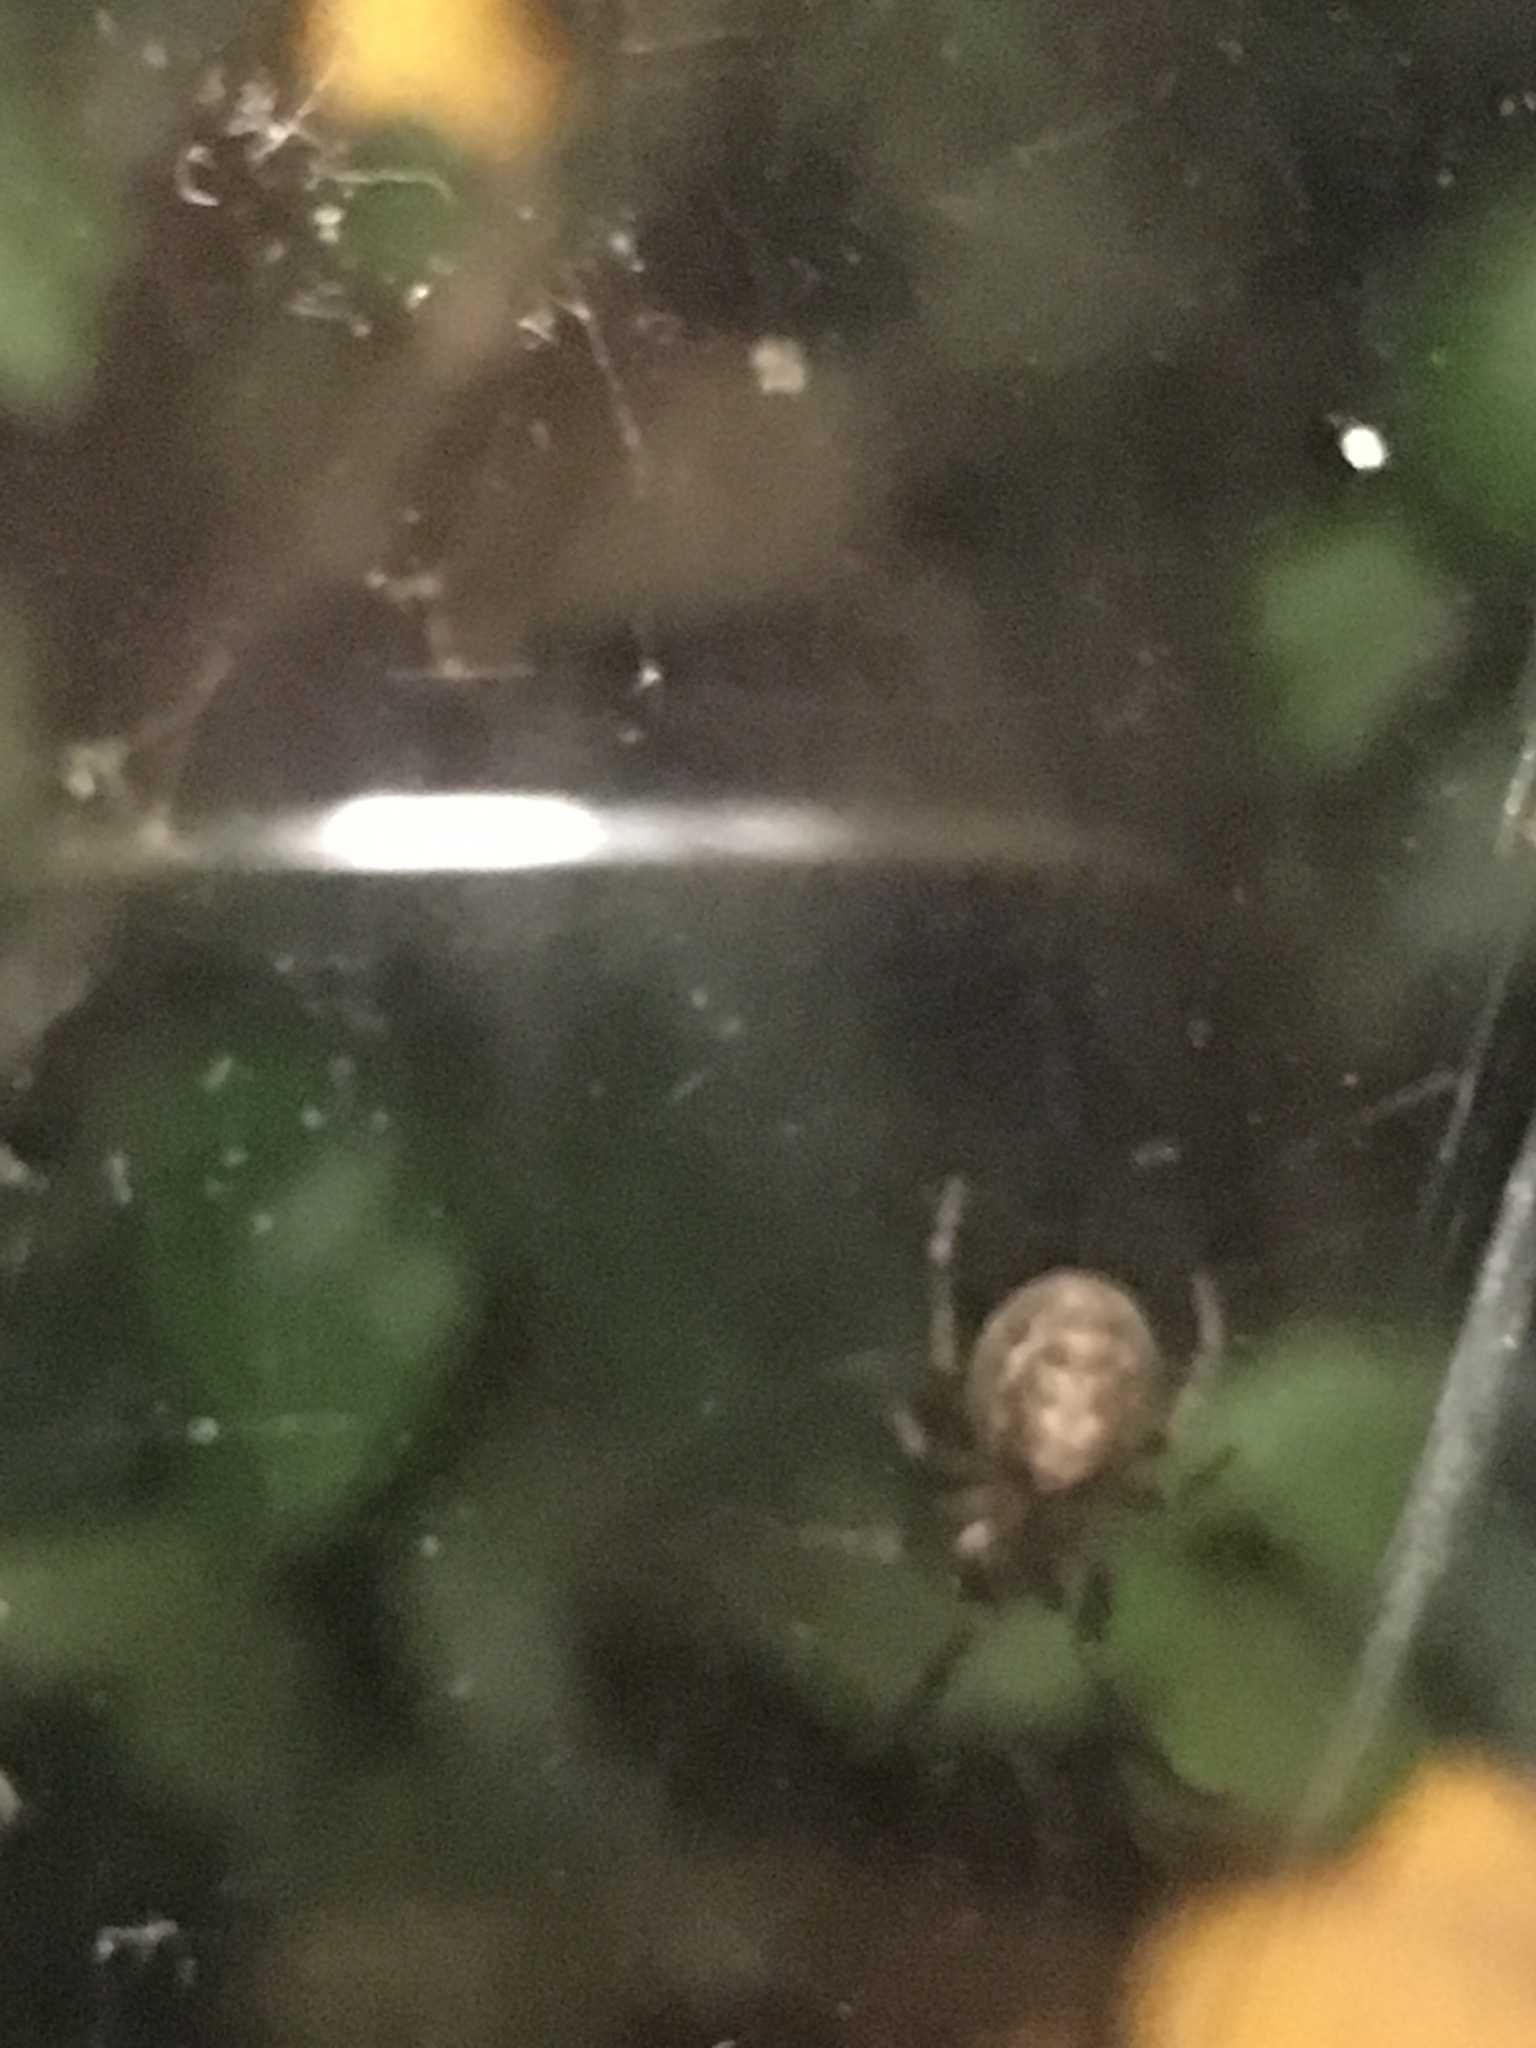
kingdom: Animalia
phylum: Arthropoda
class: Arachnida
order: Araneae
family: Araneidae
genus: Zygiella
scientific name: Zygiella x-notata
